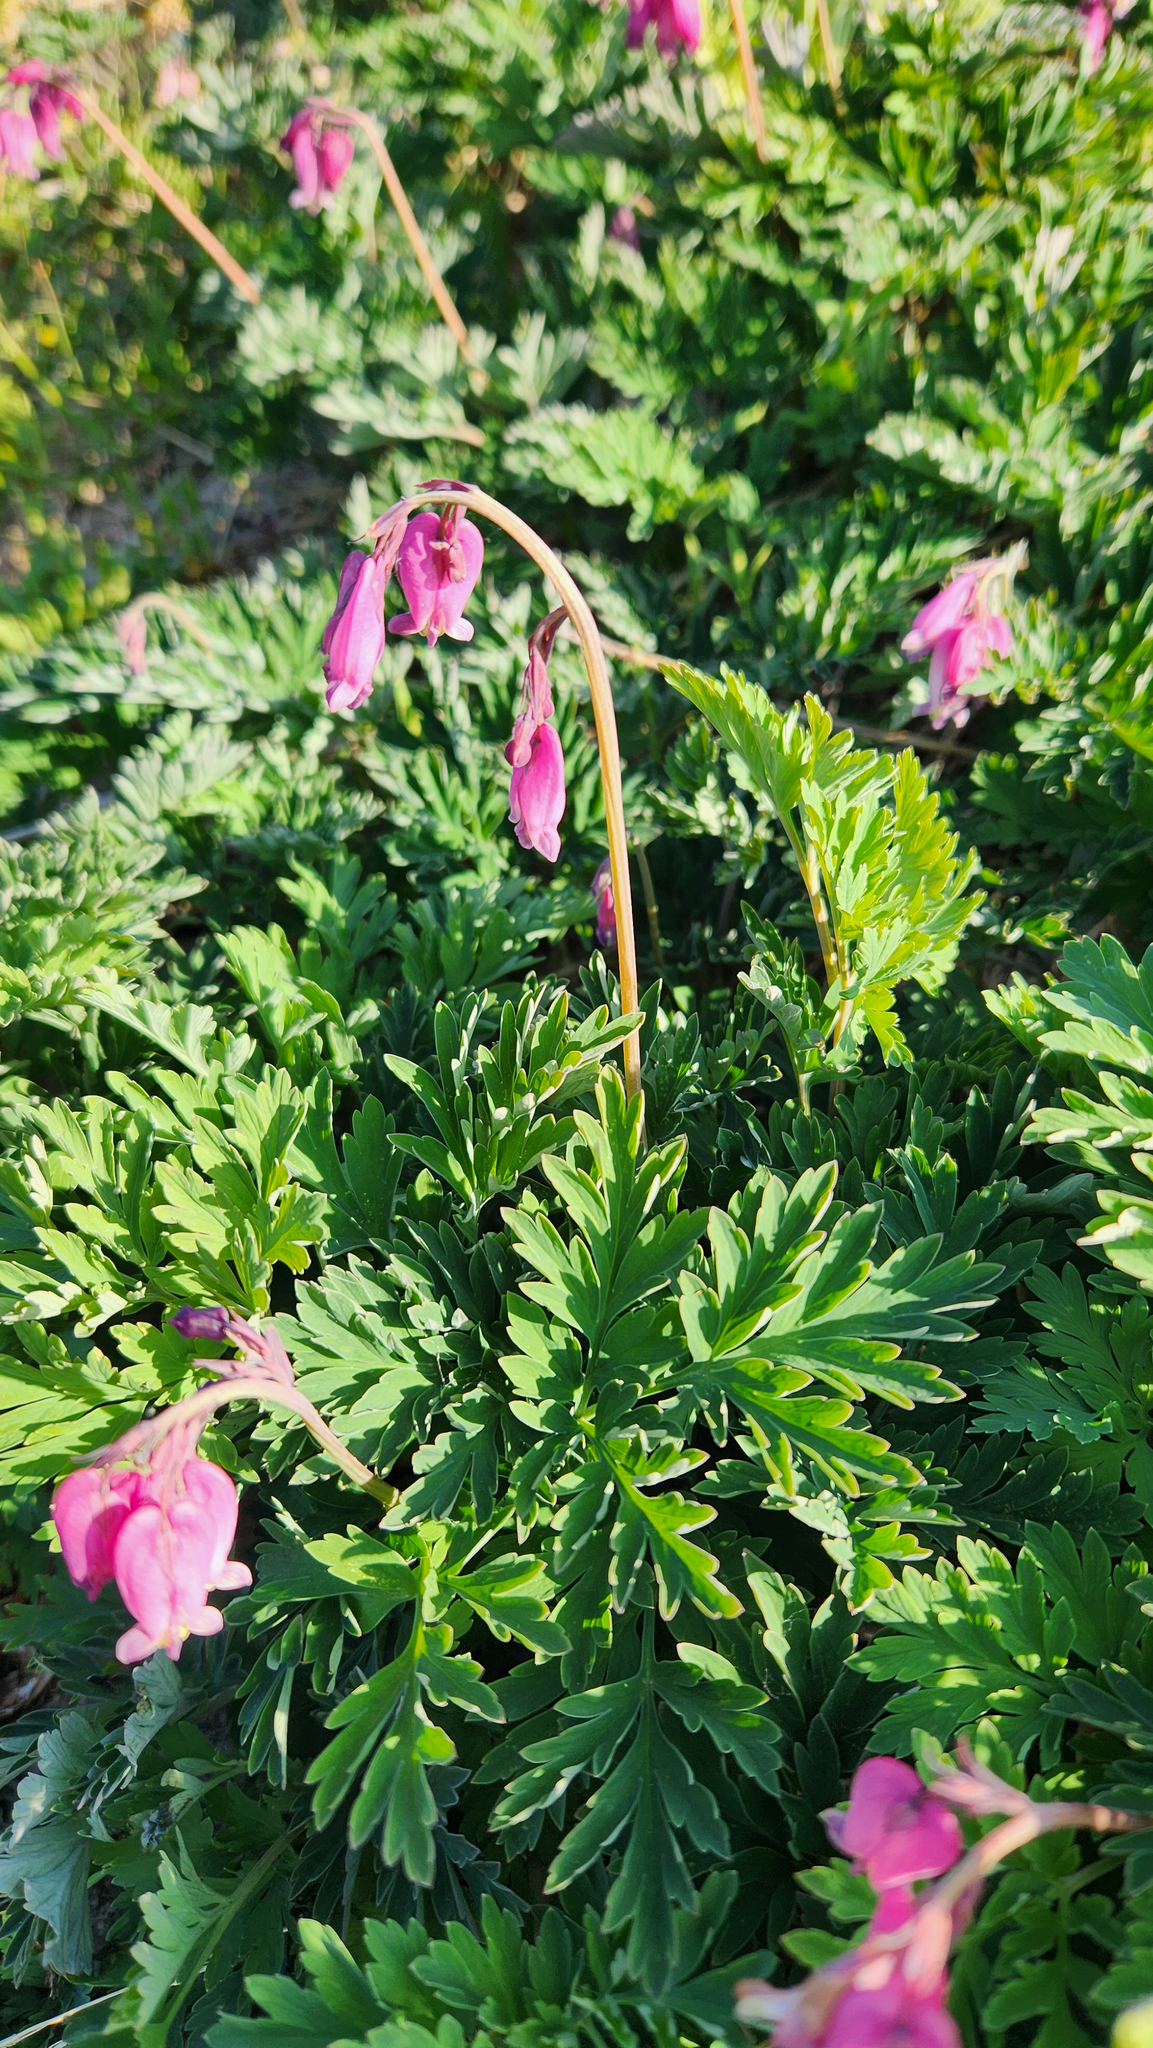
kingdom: Plantae
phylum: Tracheophyta
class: Magnoliopsida
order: Ranunculales
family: Papaveraceae
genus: Dicentra
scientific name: Dicentra formosa
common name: Bleeding-heart
